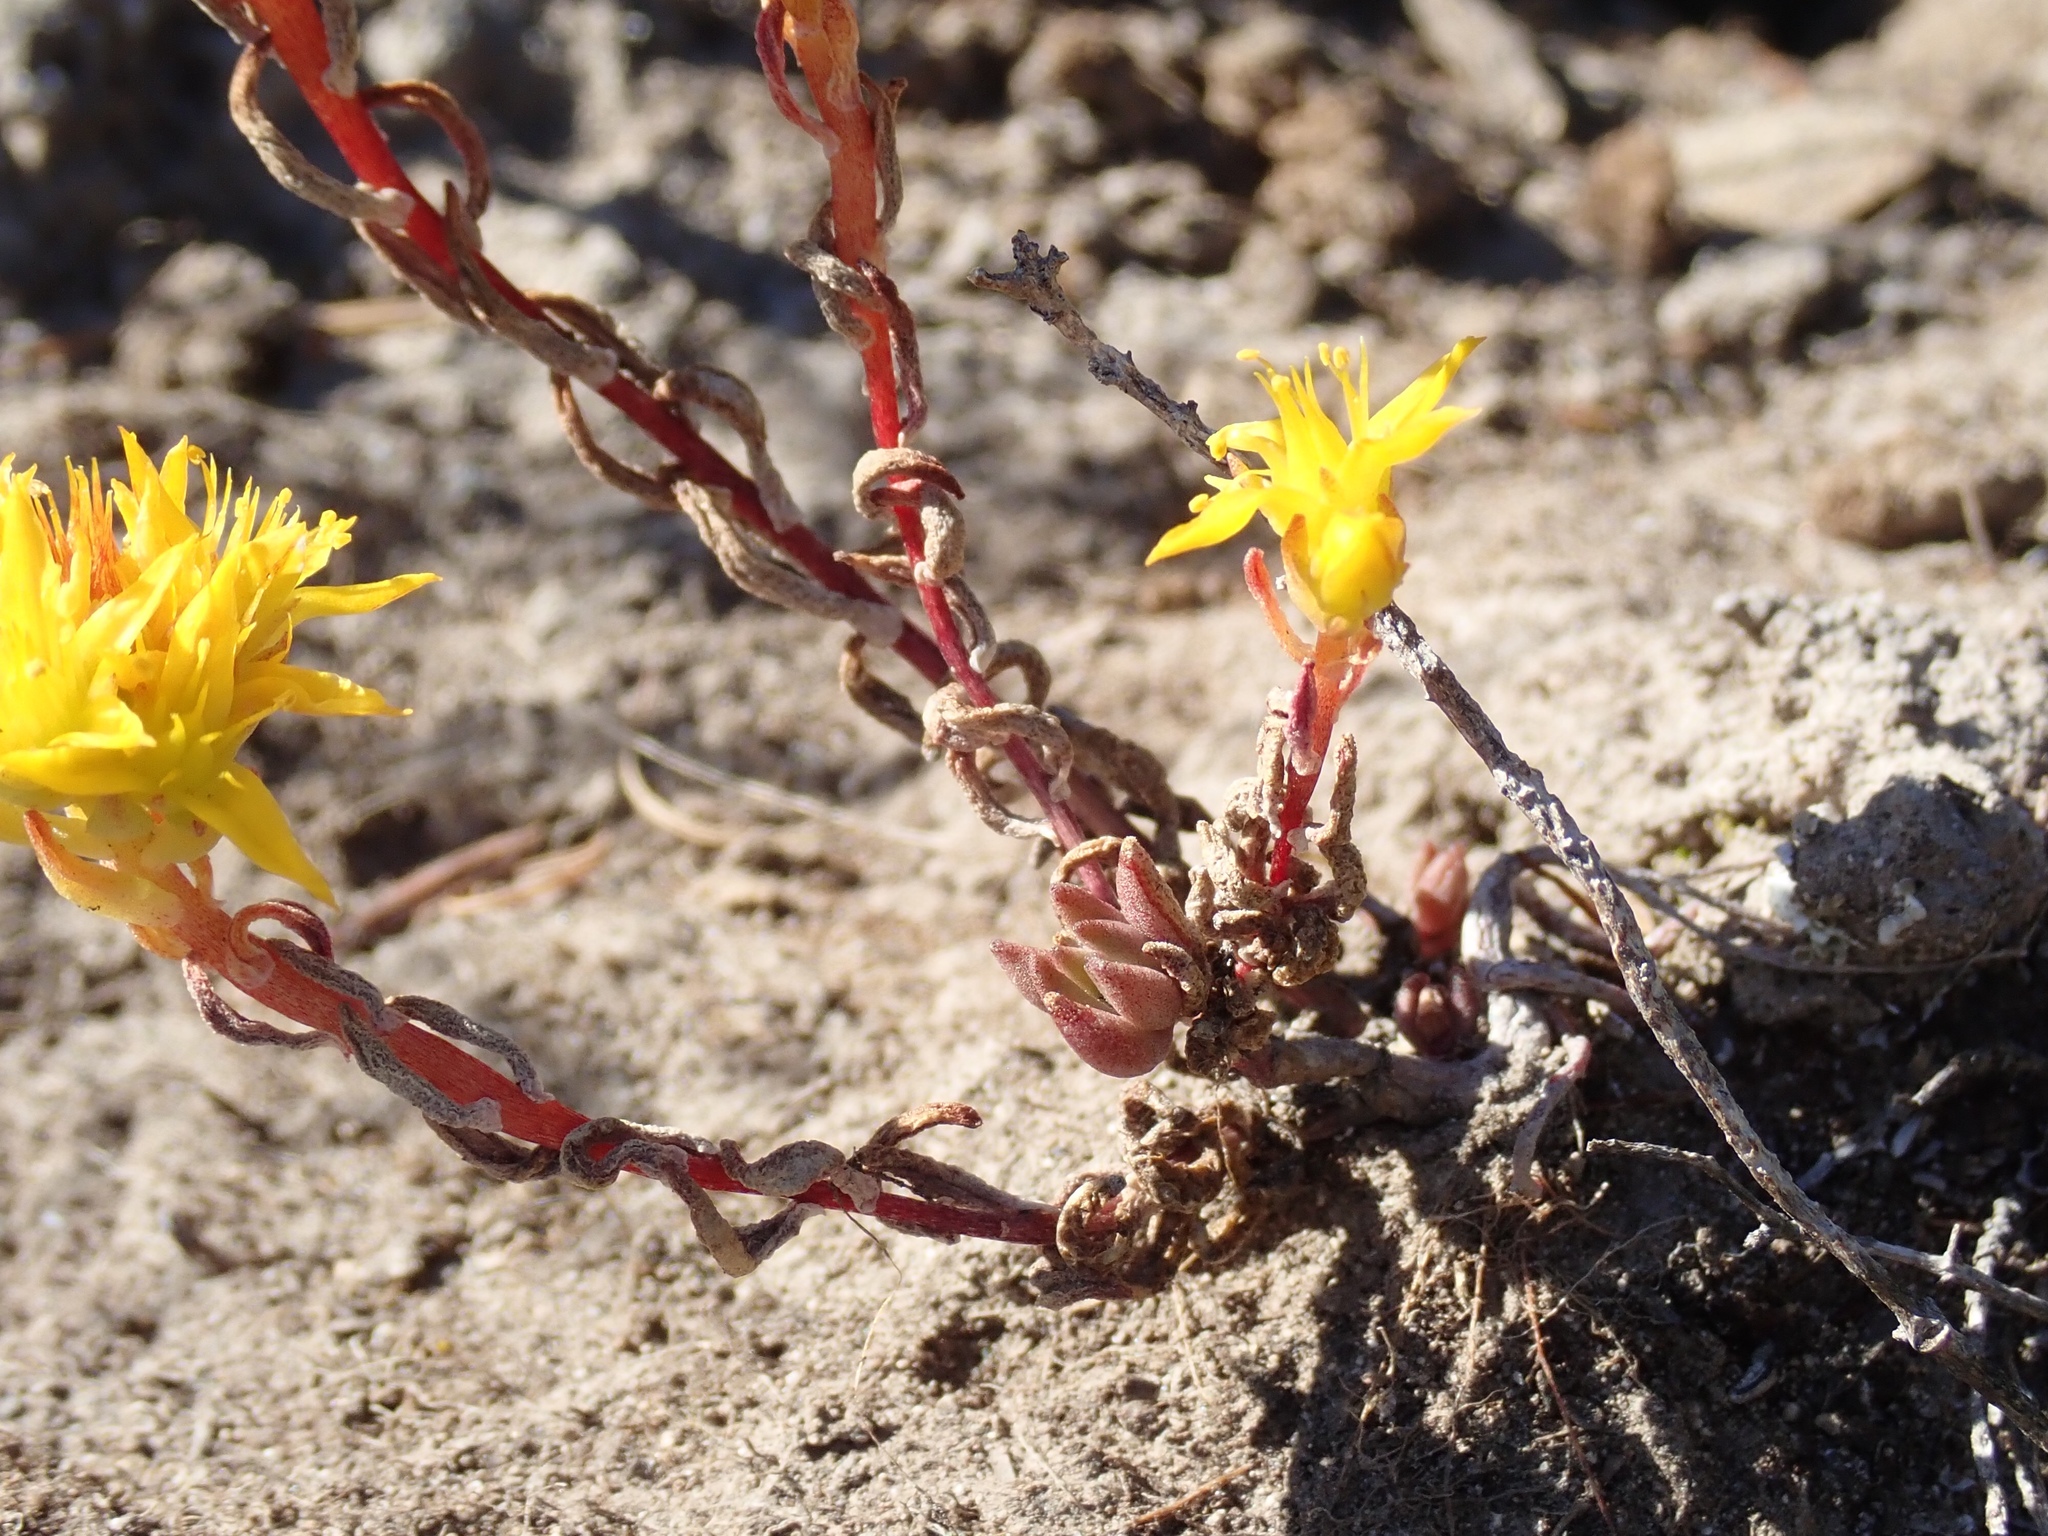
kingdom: Plantae
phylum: Tracheophyta
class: Magnoliopsida
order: Saxifragales
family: Crassulaceae
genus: Sedum
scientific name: Sedum lanceolatum
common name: Common stonecrop
